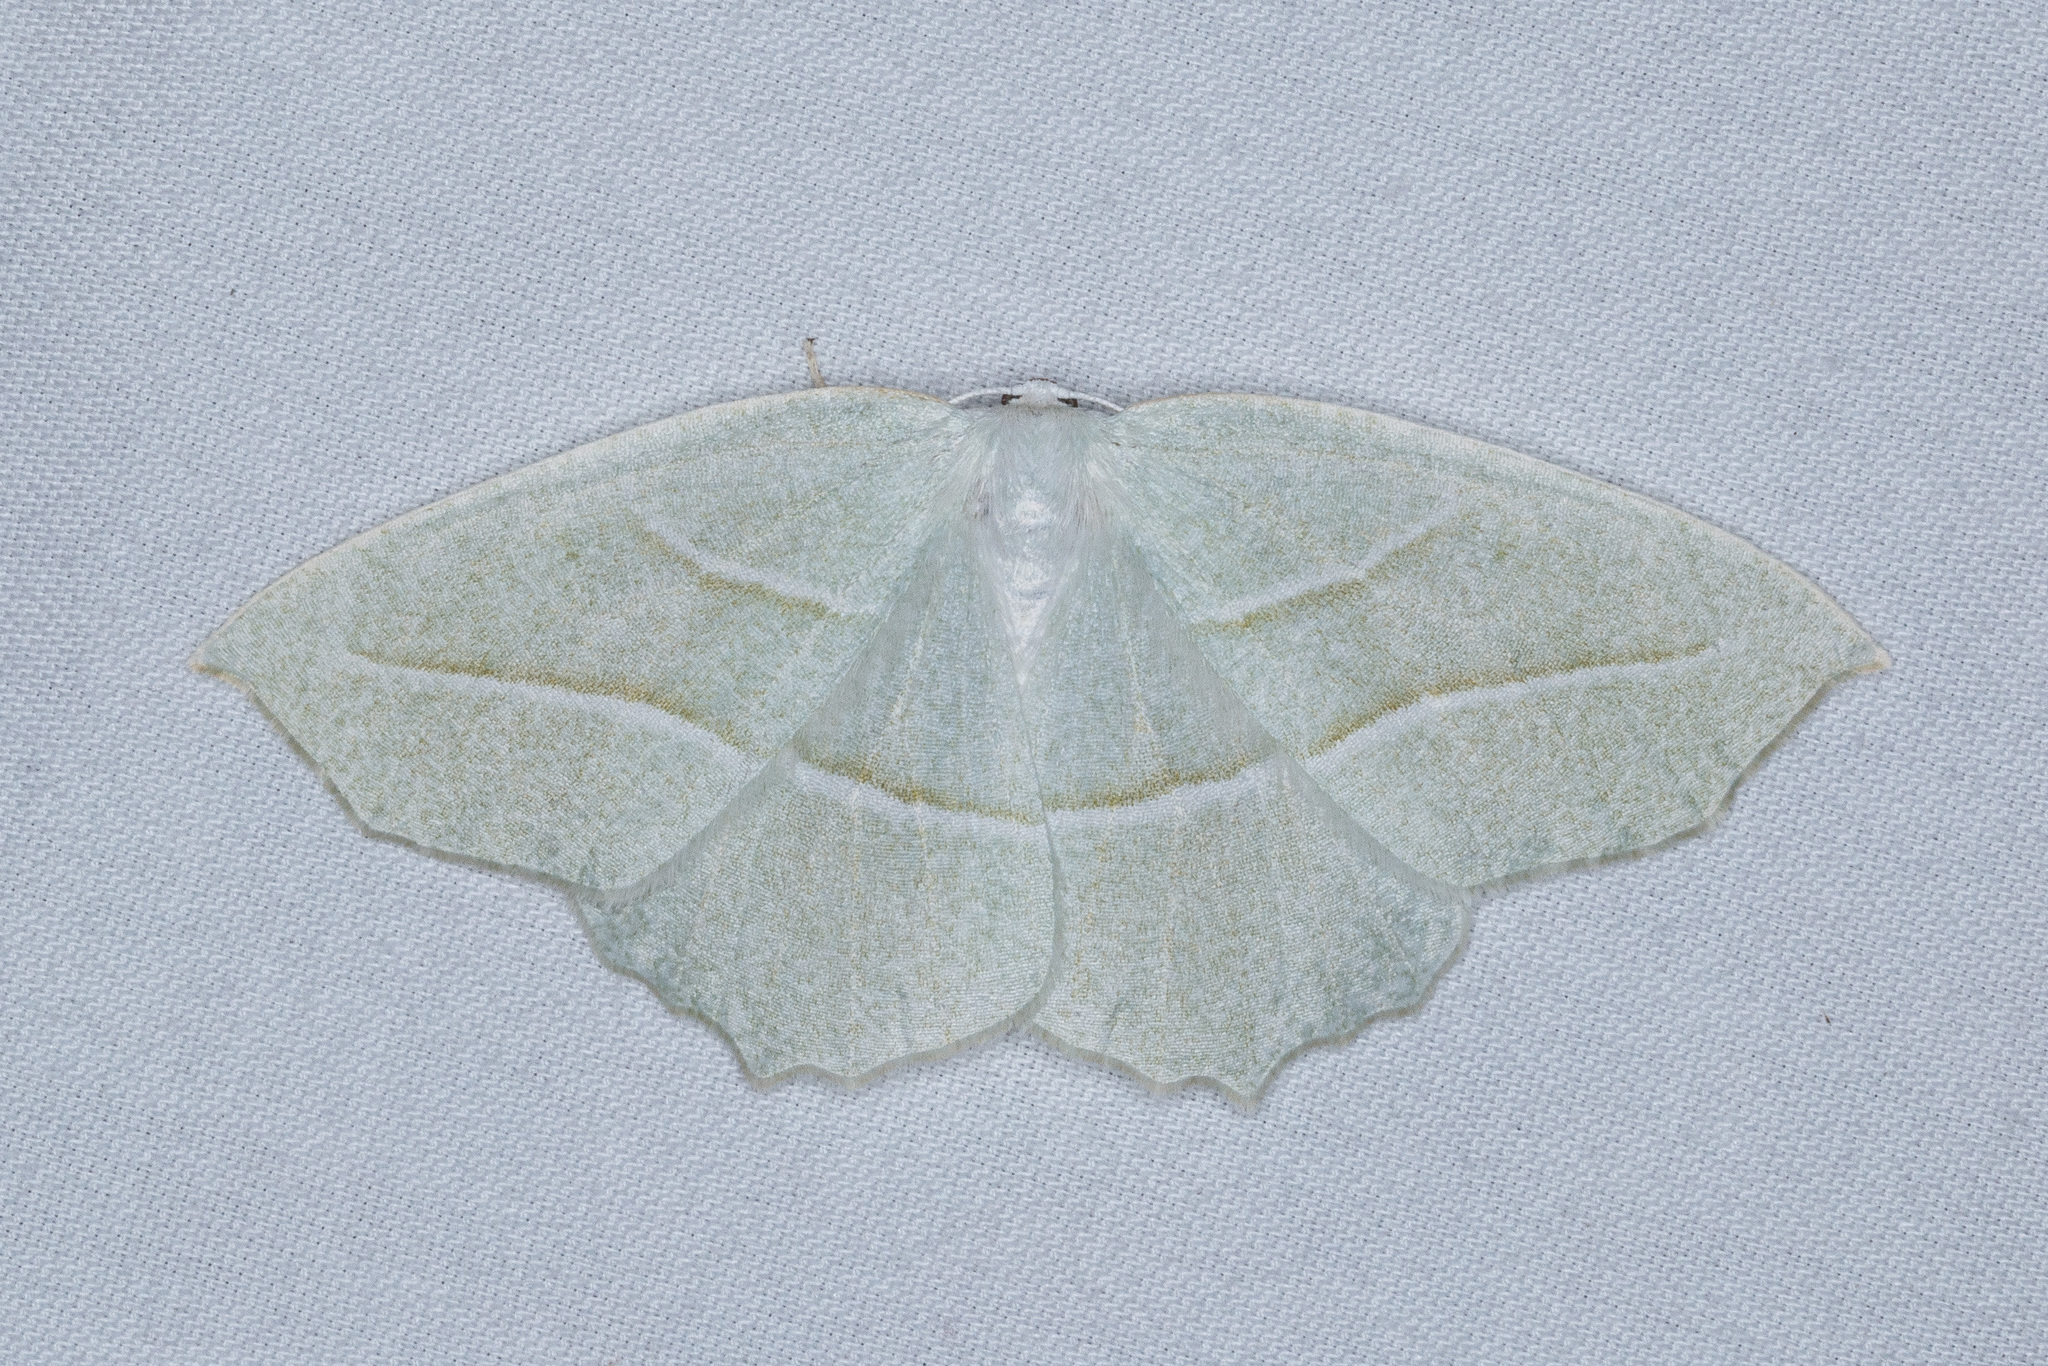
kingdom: Animalia
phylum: Arthropoda
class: Insecta
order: Lepidoptera
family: Geometridae
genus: Campaea
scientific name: Campaea perlata
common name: Fringed looper
